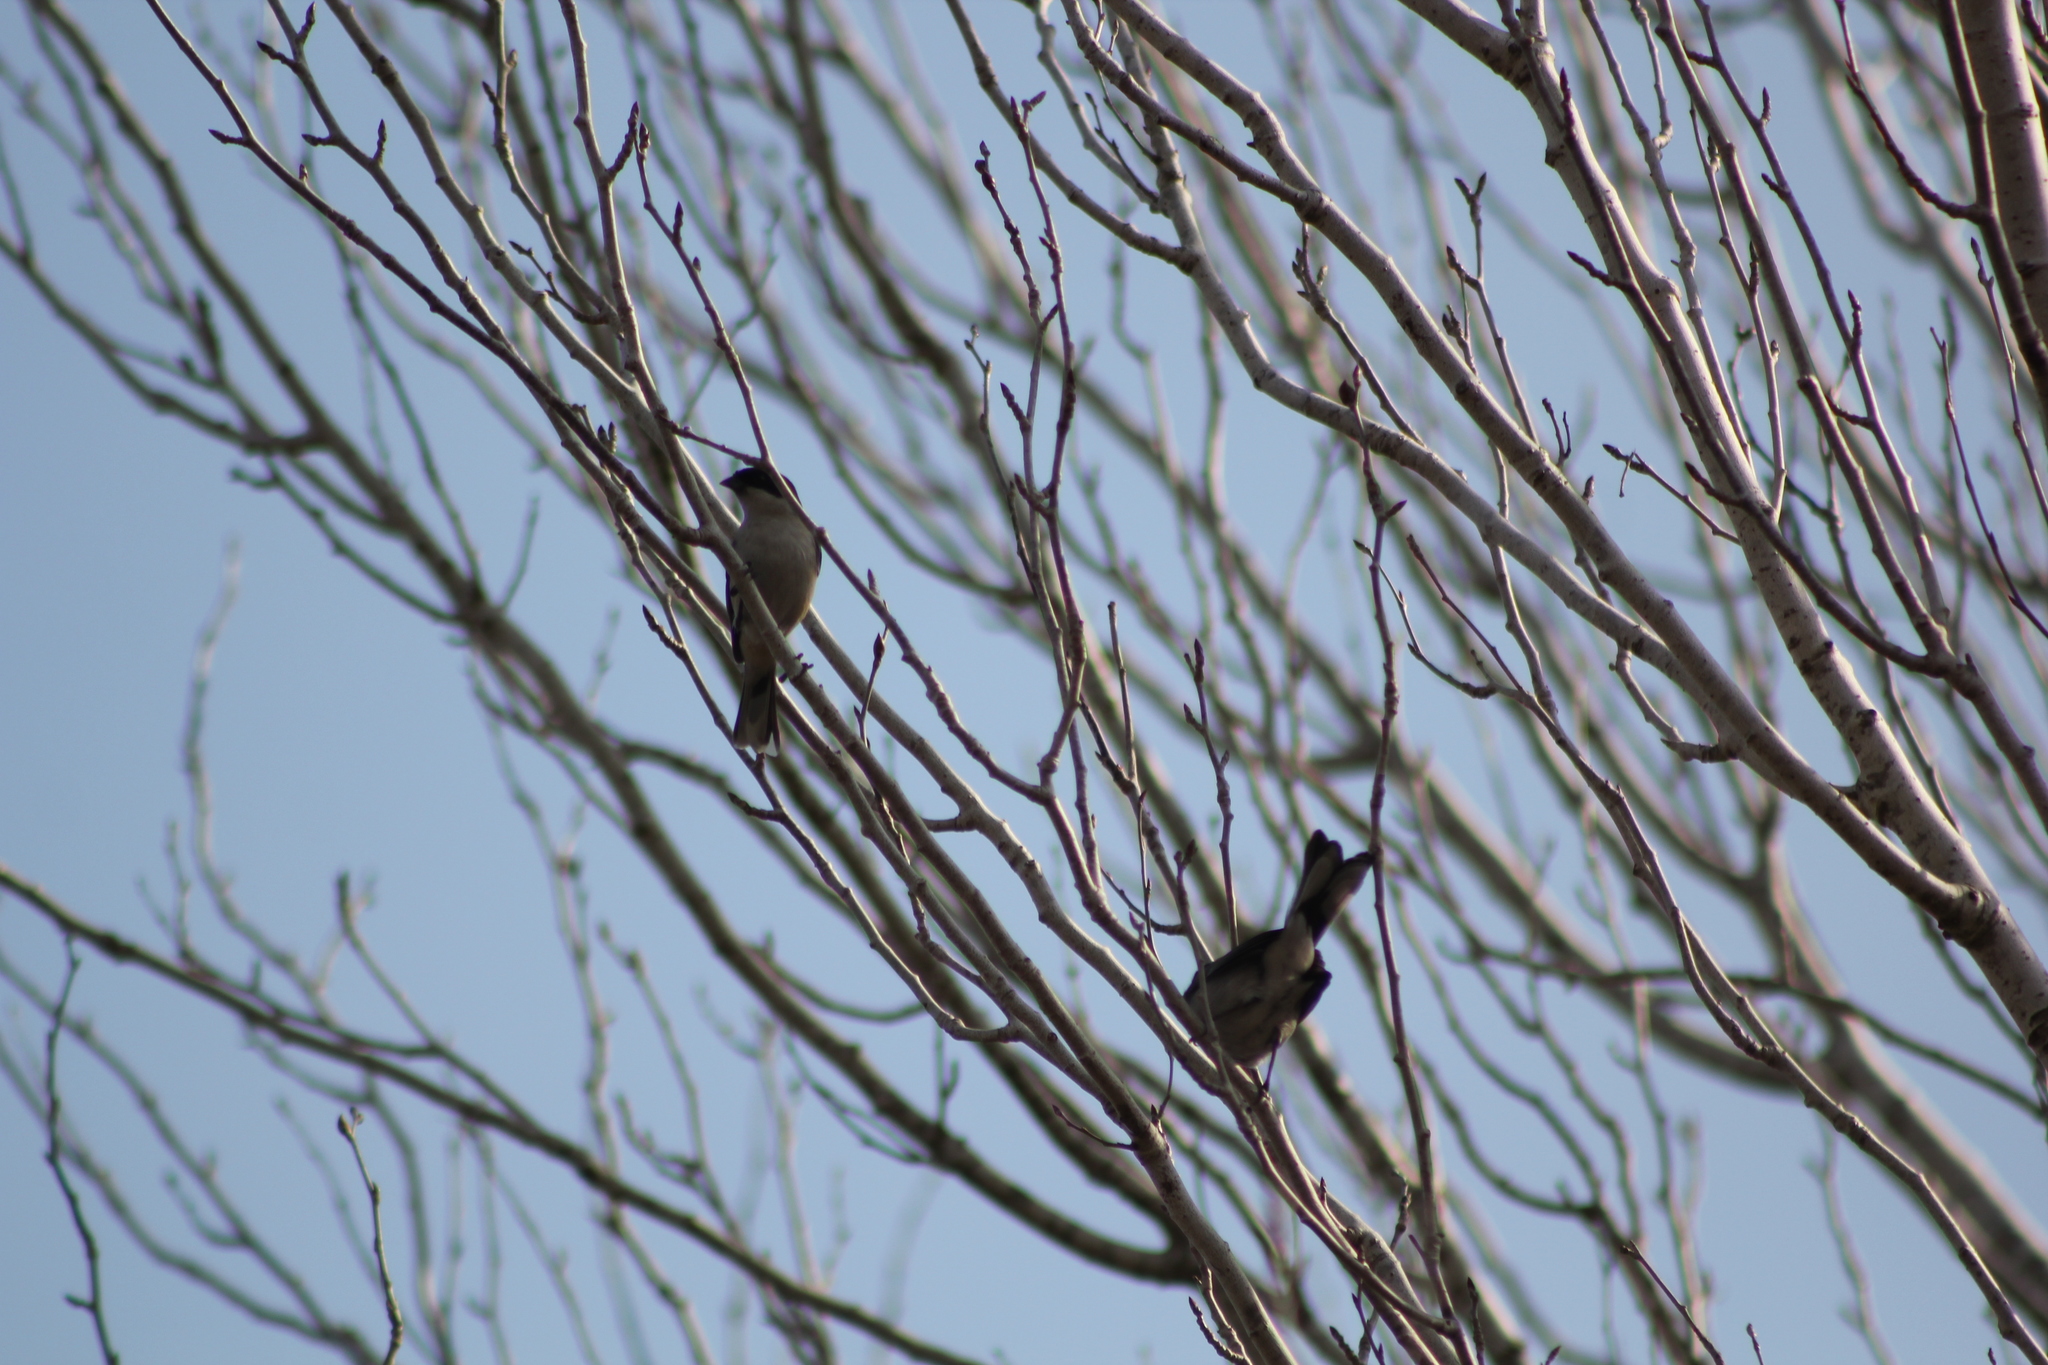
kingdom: Animalia
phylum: Chordata
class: Aves
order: Passeriformes
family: Thraupidae
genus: Microspingus
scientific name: Microspingus melanoleucus
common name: Black-capped warbling-finch
